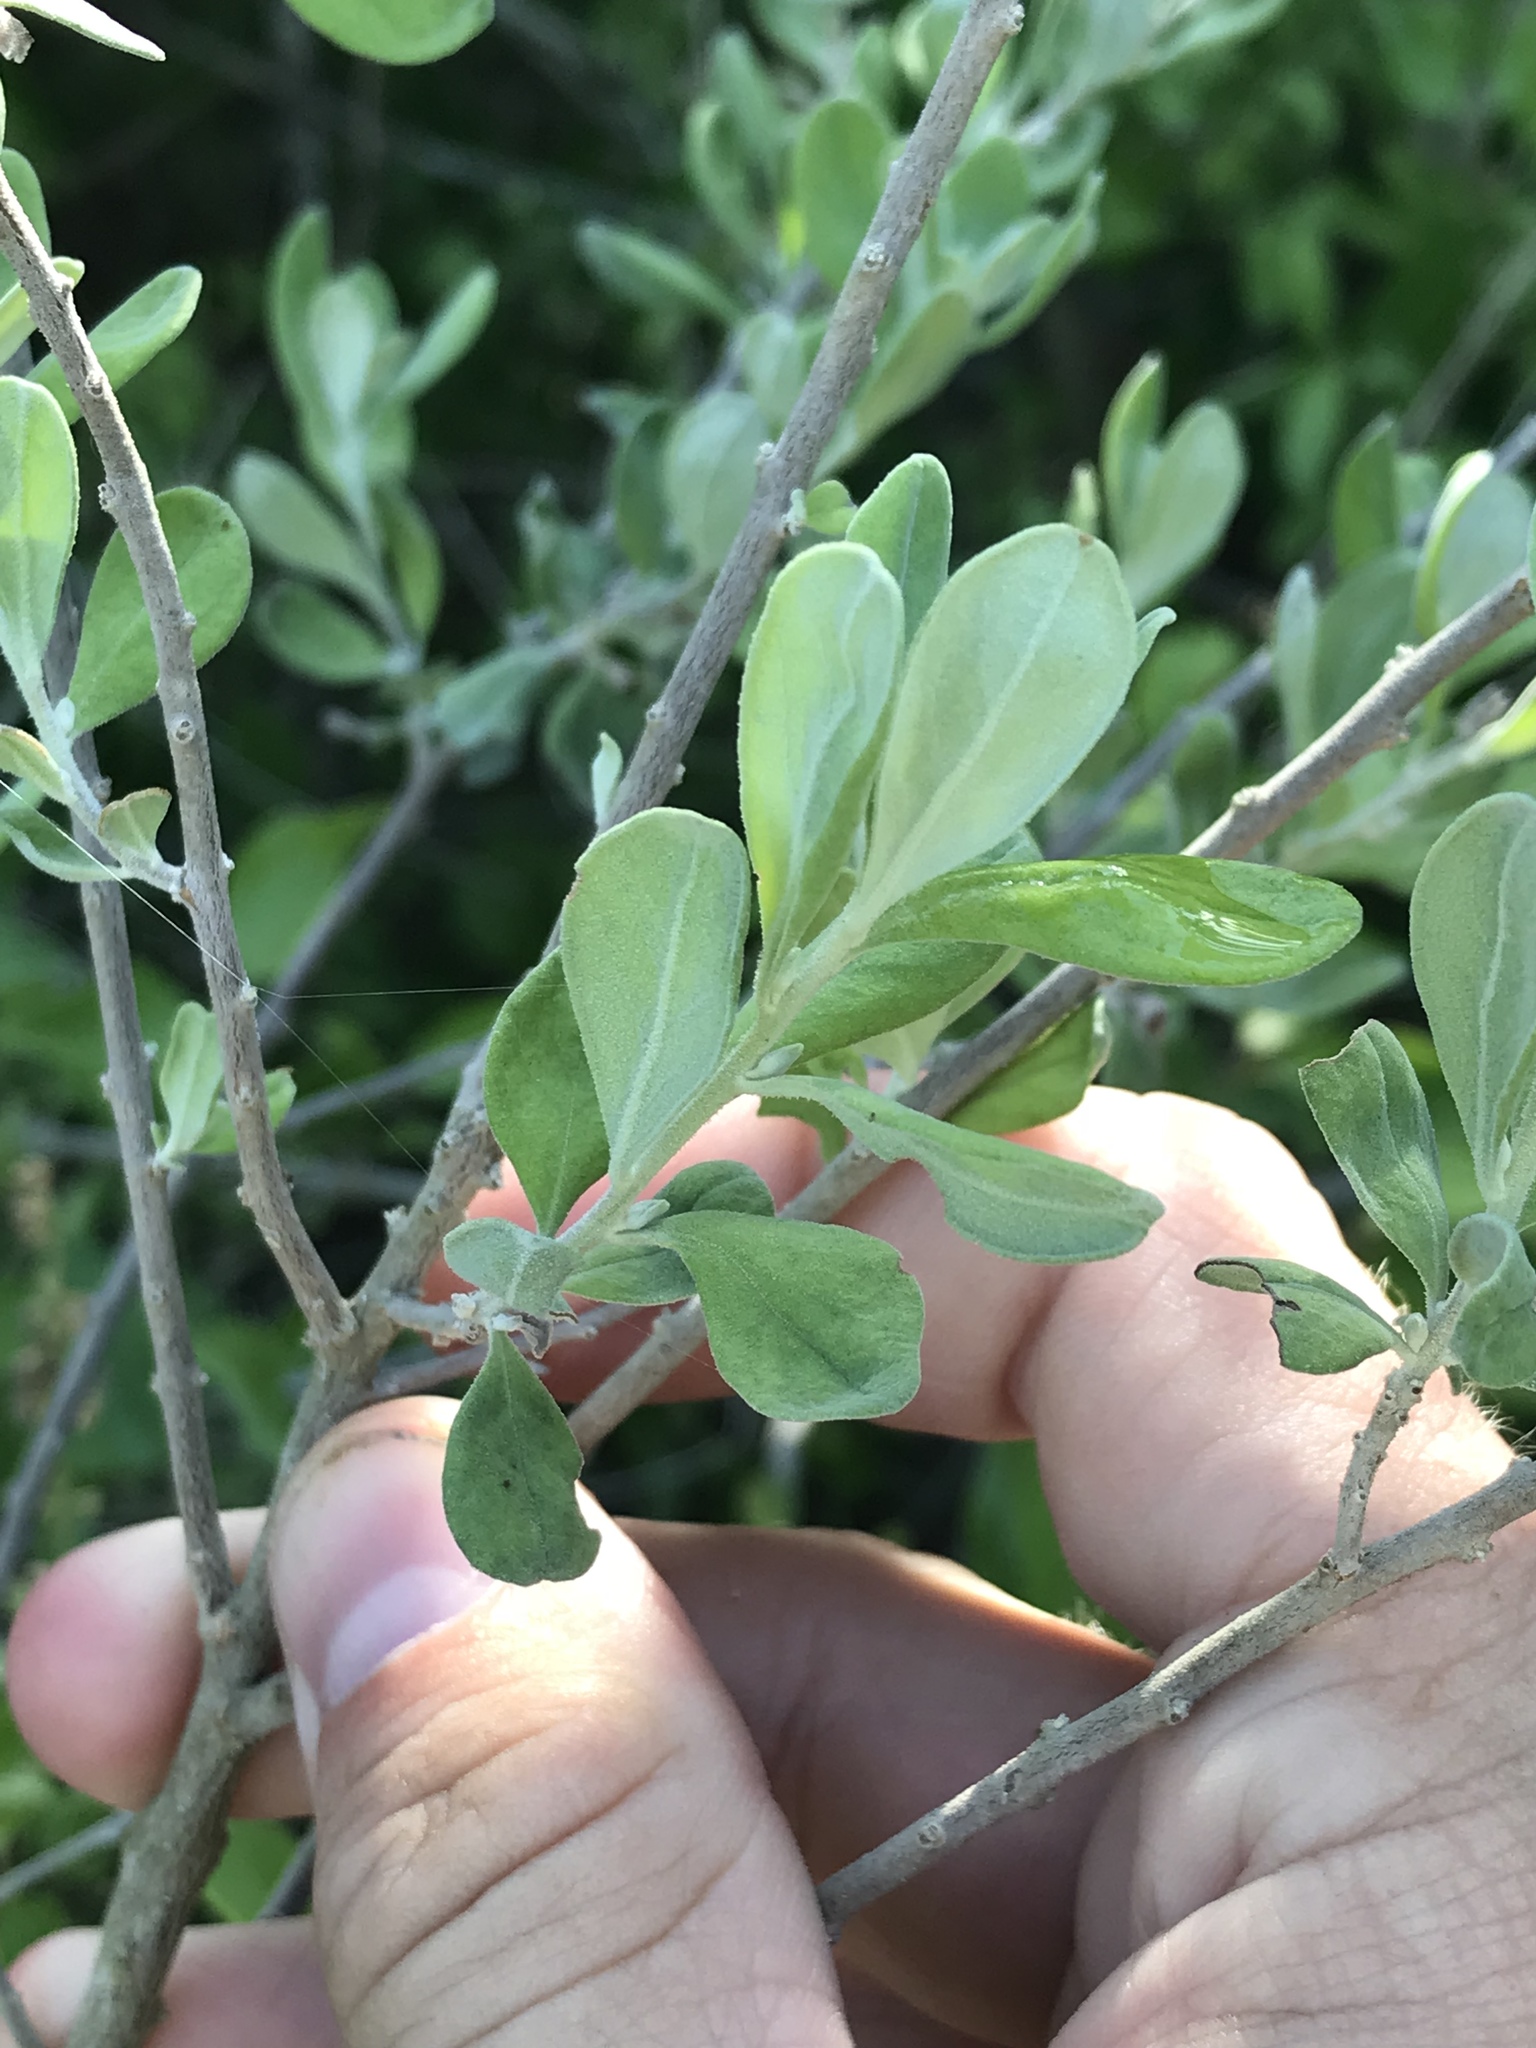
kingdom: Plantae
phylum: Tracheophyta
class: Magnoliopsida
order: Lamiales
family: Scrophulariaceae
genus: Leucophyllum
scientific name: Leucophyllum frutescens
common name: Texas silverleaf
